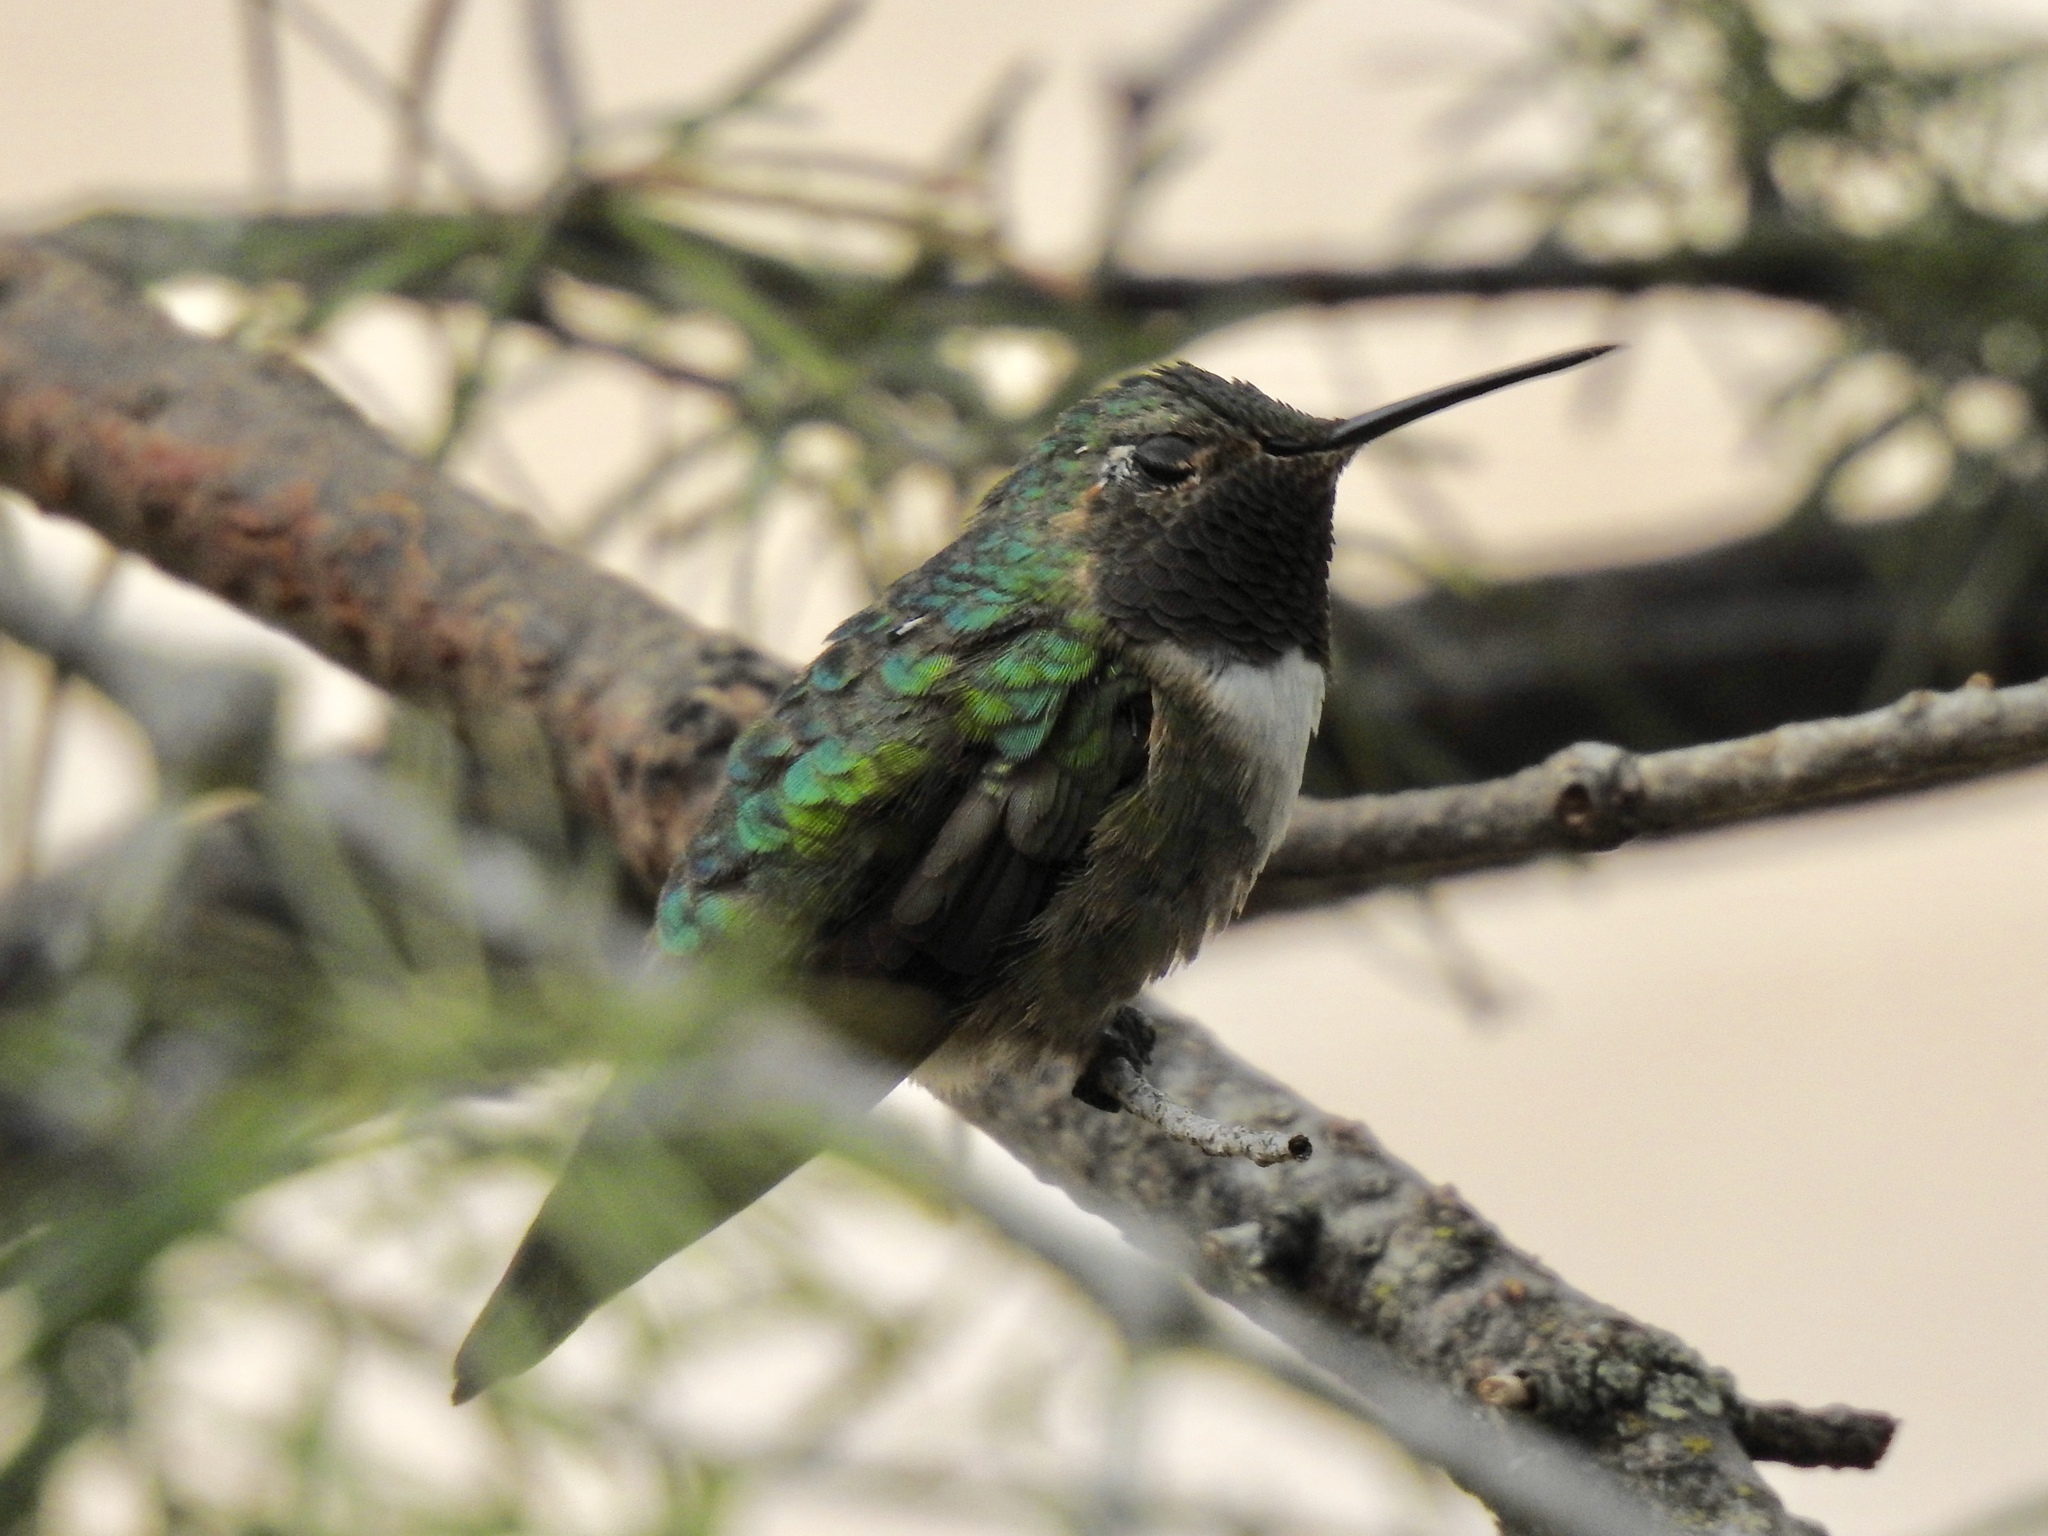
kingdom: Animalia
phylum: Chordata
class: Aves
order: Apodiformes
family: Trochilidae
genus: Selasphorus
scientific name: Selasphorus platycercus
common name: Broad-tailed hummingbird
